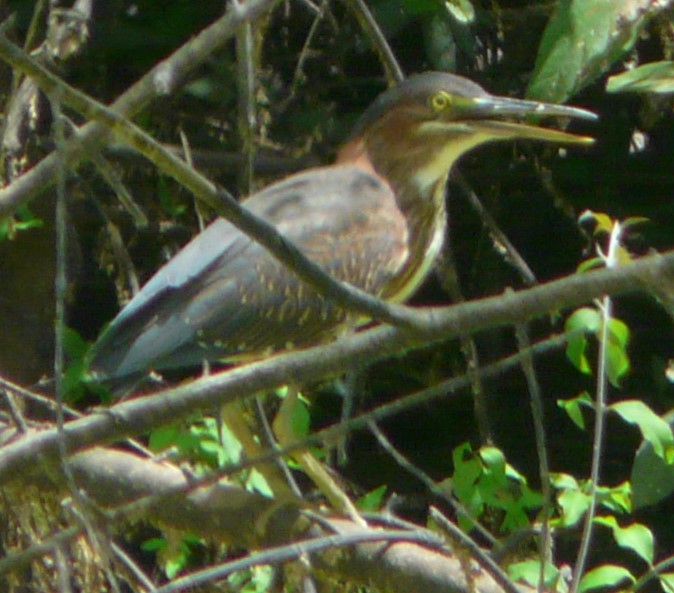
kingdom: Animalia
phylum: Chordata
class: Aves
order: Pelecaniformes
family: Ardeidae
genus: Butorides
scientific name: Butorides virescens
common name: Green heron
